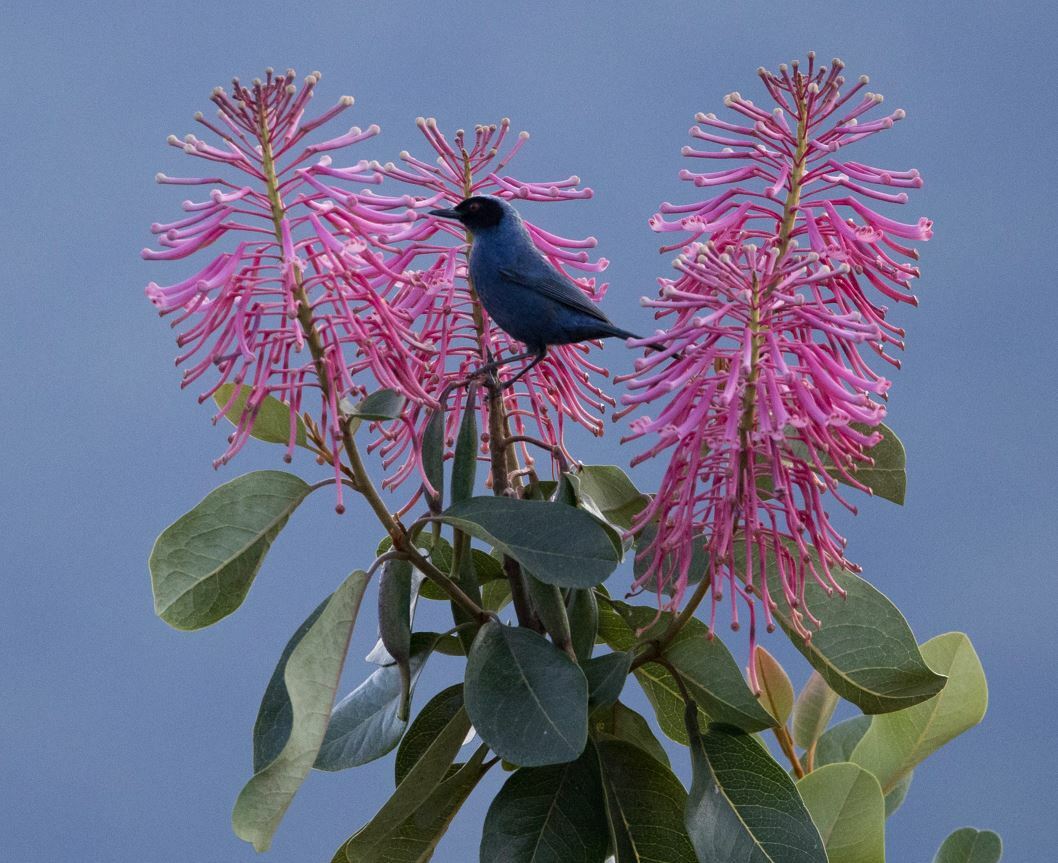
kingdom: Animalia
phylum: Chordata
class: Aves
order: Passeriformes
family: Thraupidae
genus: Diglossa
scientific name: Diglossa cyanea
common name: Masked flowerpiercer
